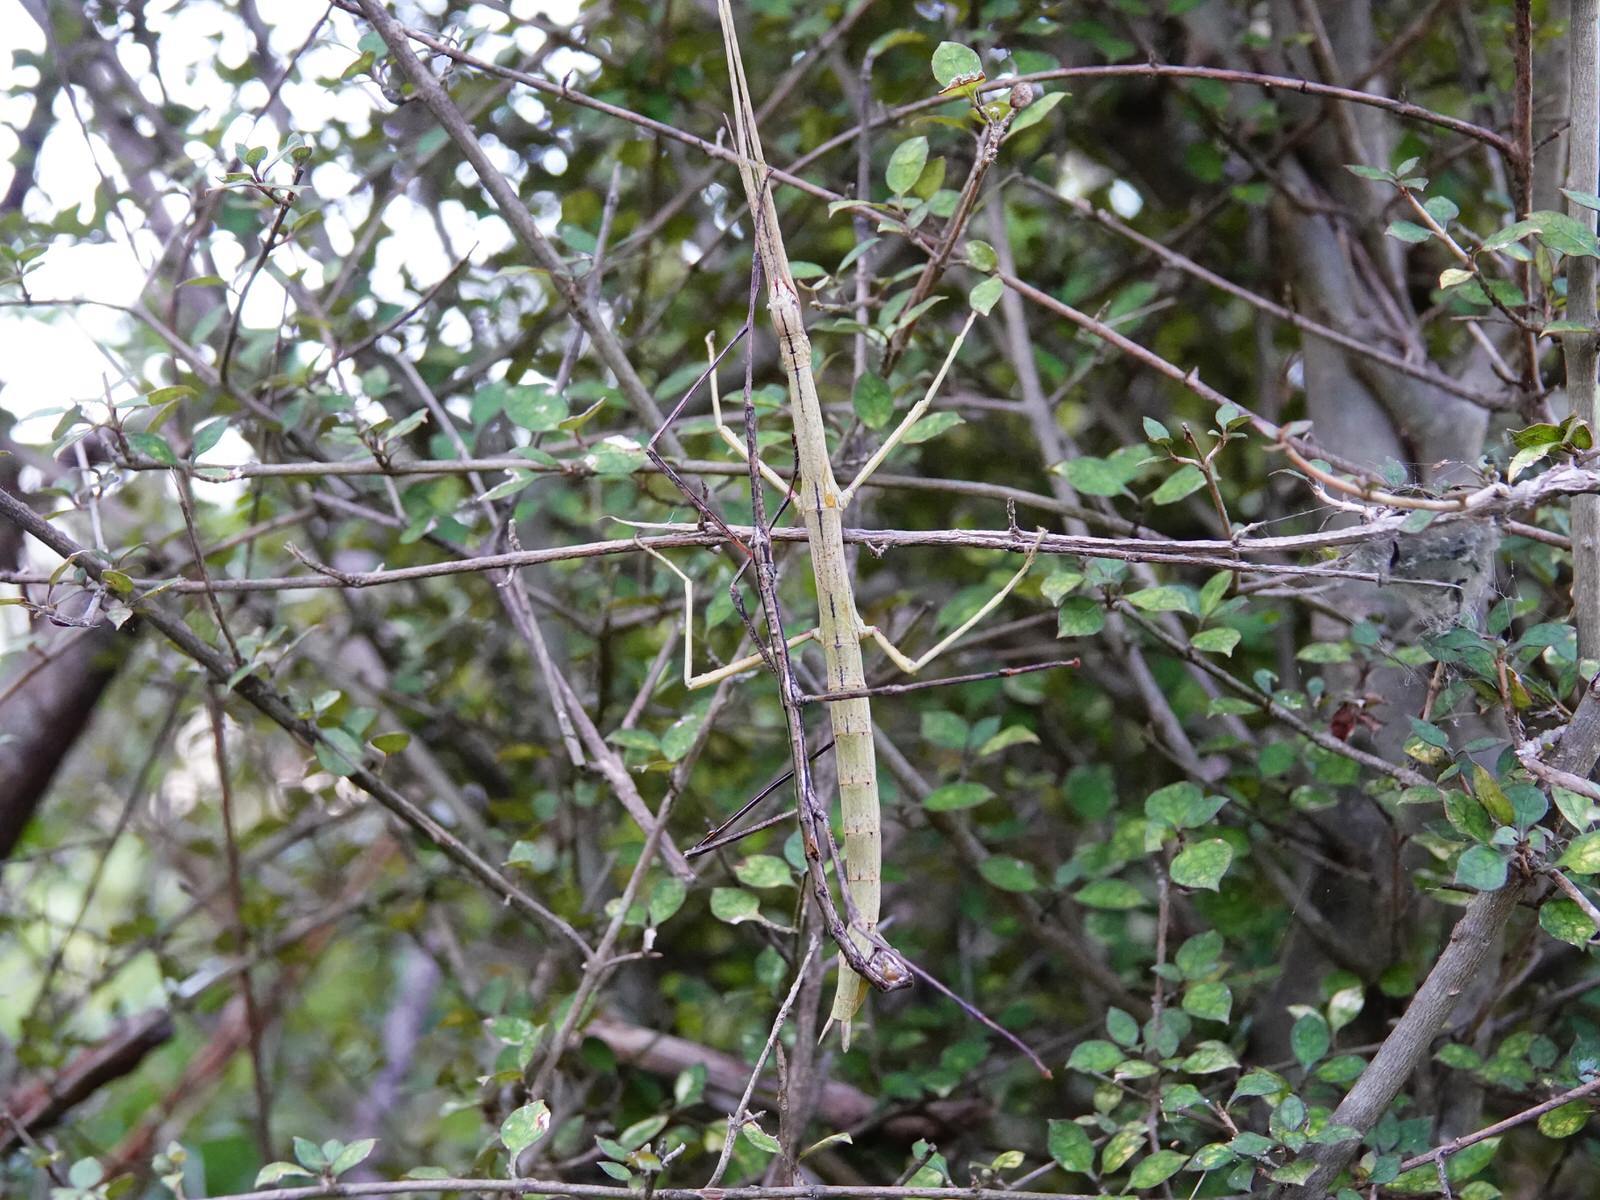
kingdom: Animalia
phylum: Arthropoda
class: Insecta
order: Phasmida
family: Phasmatidae
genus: Clitarchus
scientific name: Clitarchus hookeri
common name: Smooth stick insect
